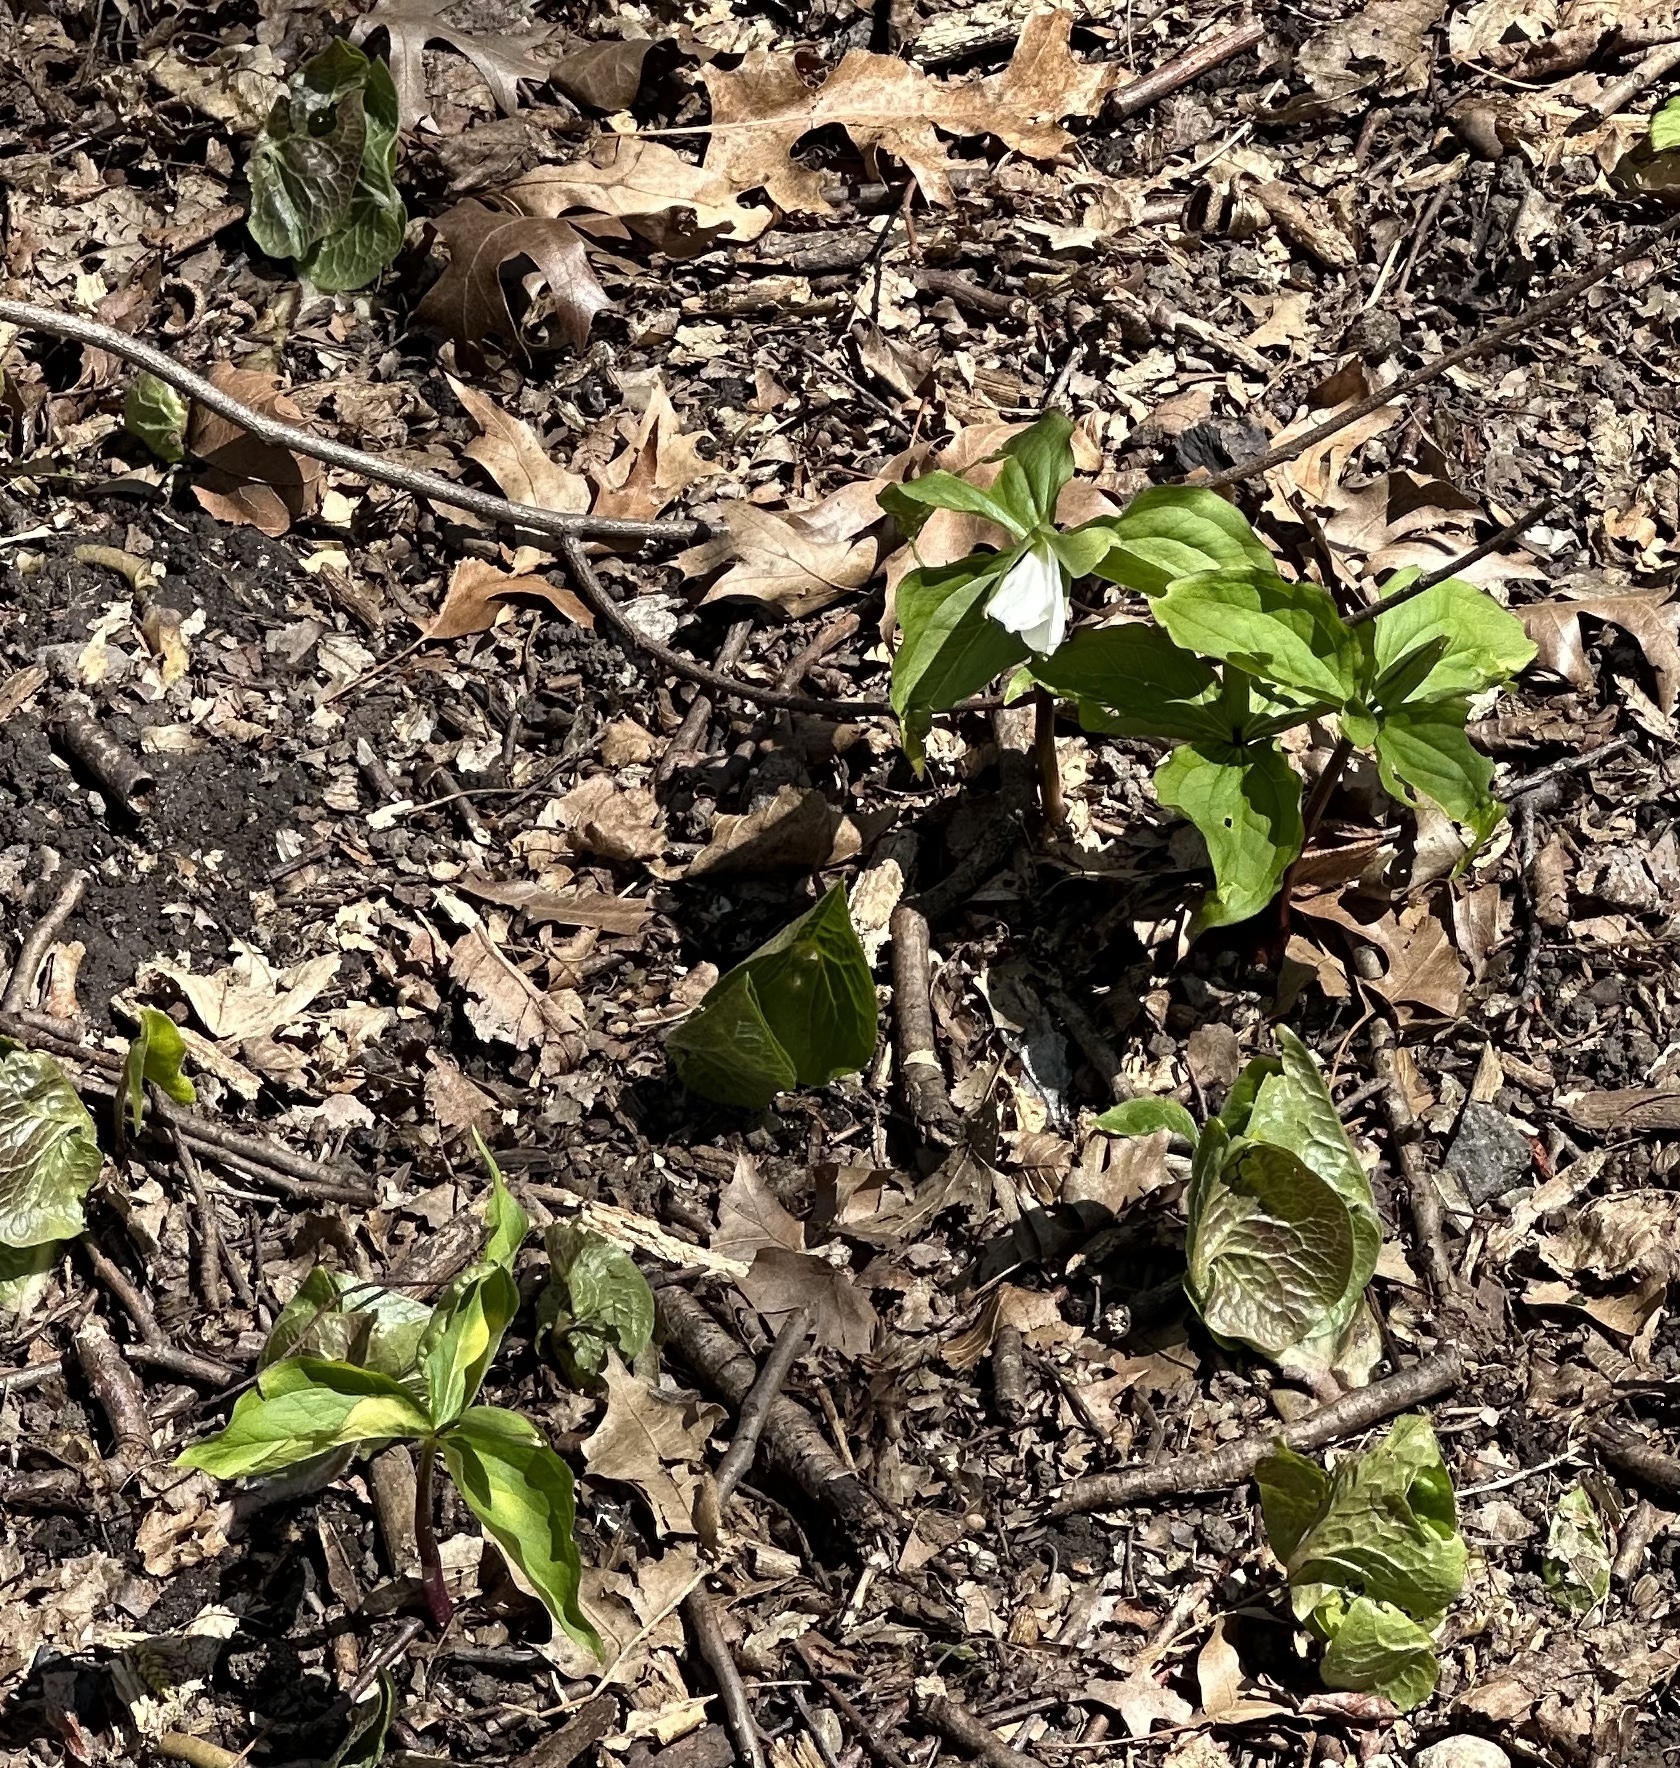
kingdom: Plantae
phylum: Tracheophyta
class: Liliopsida
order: Liliales
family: Melanthiaceae
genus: Trillium
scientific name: Trillium grandiflorum
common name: Great white trillium
